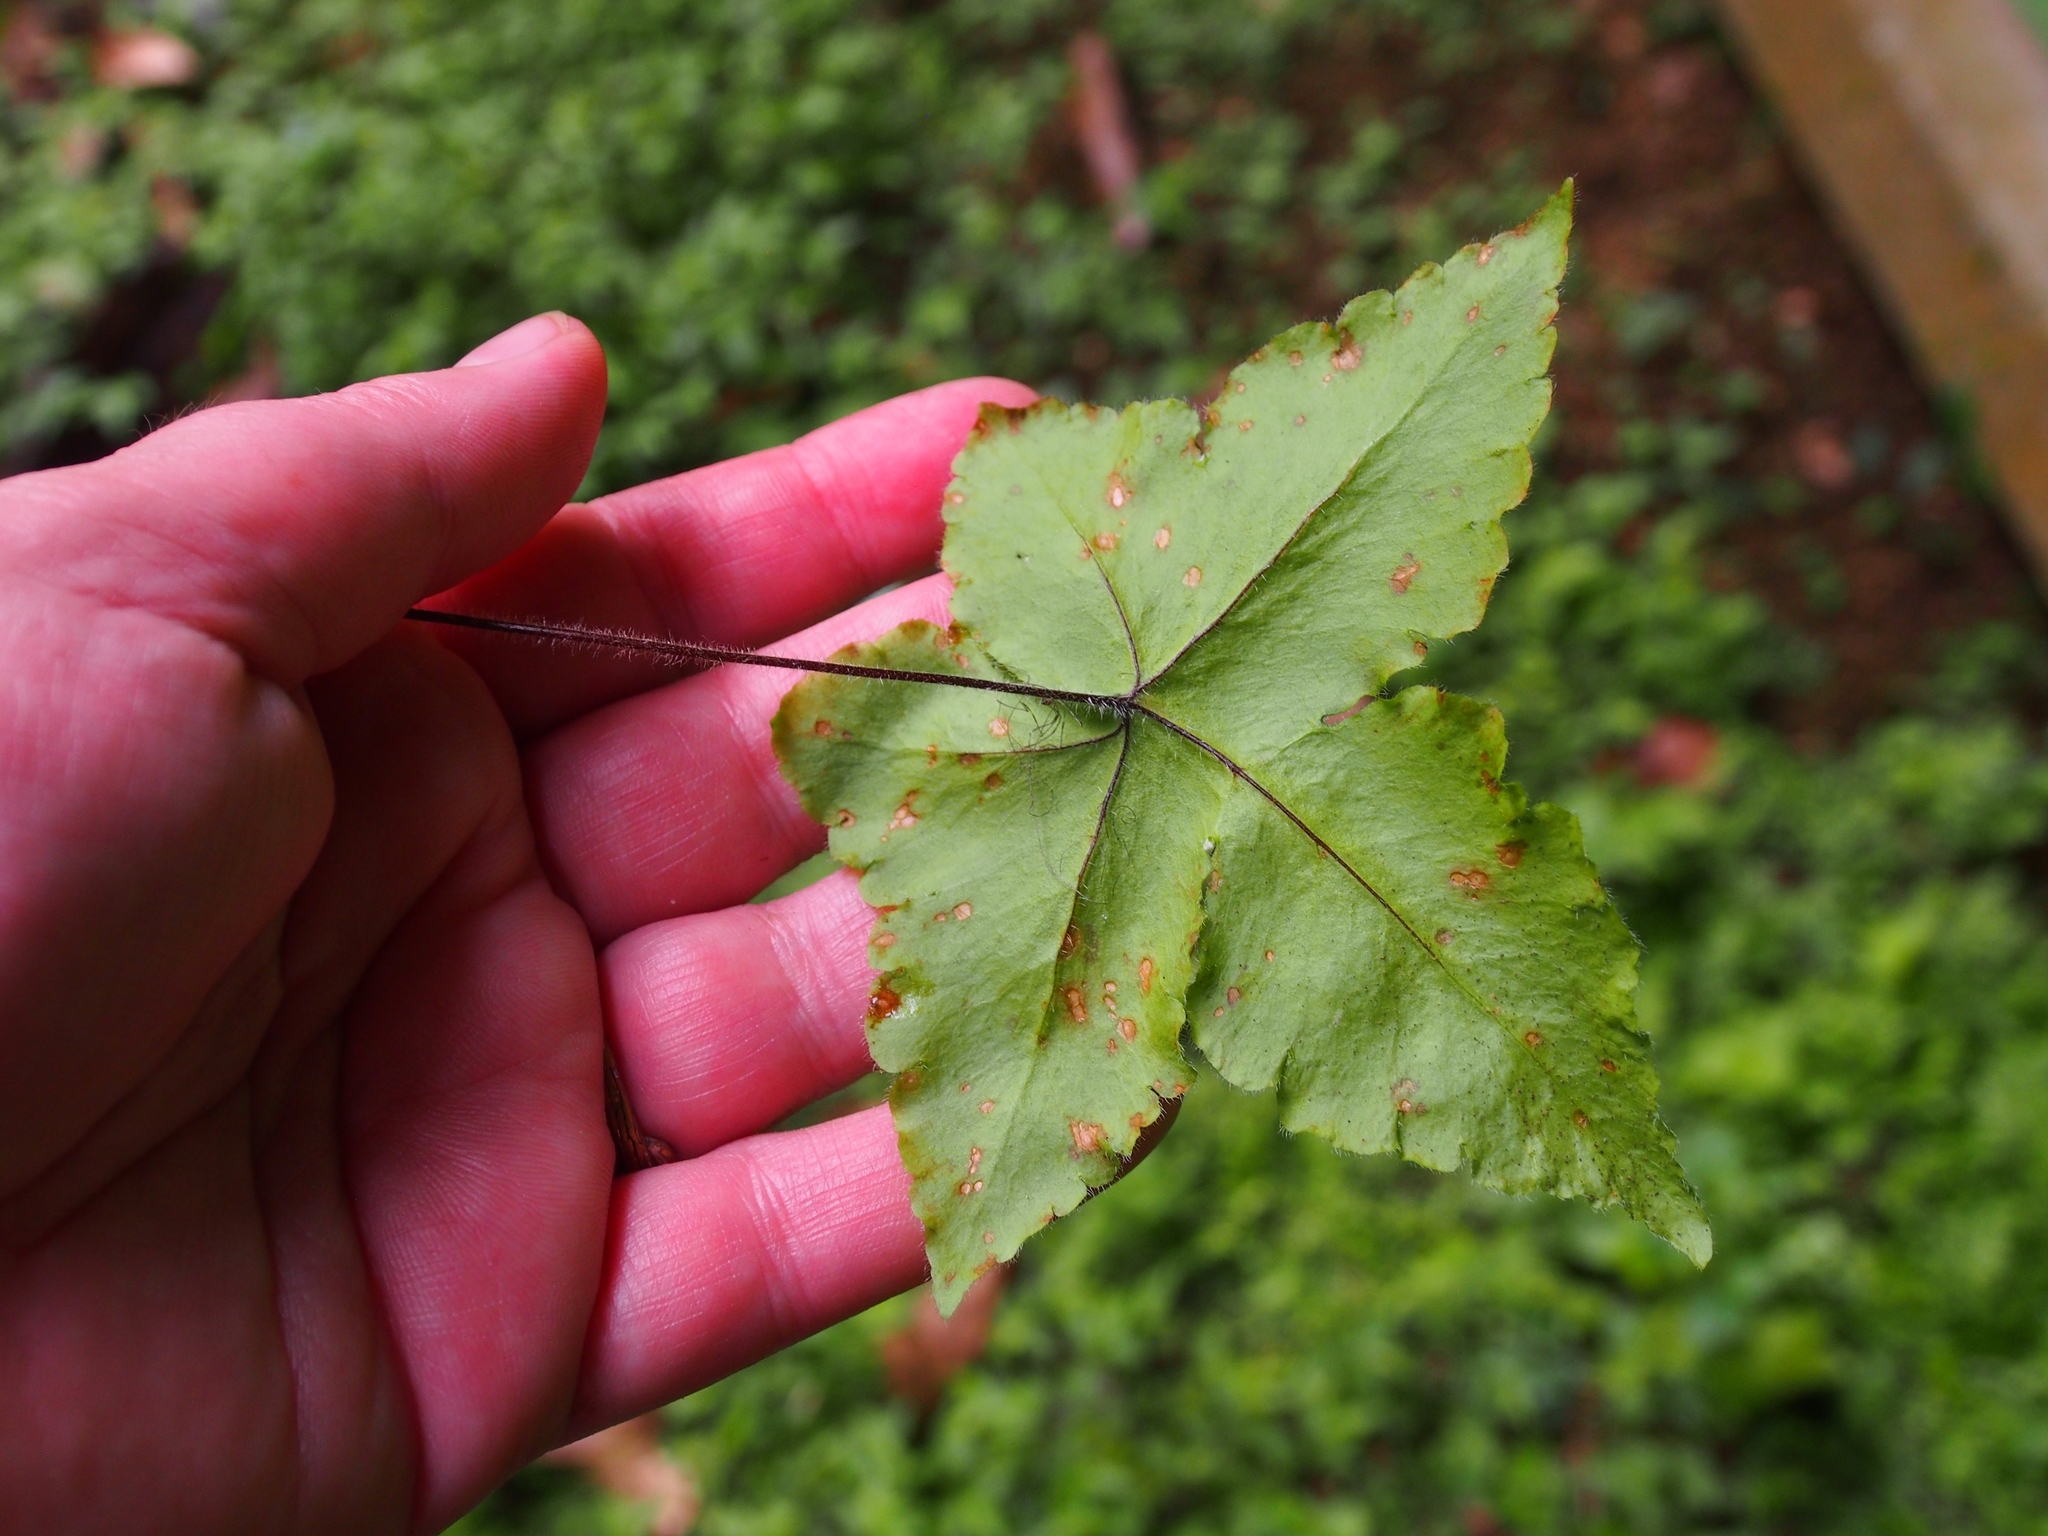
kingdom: Plantae
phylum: Tracheophyta
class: Polypodiopsida
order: Polypodiales
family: Pteridaceae
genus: Hemionitis
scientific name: Hemionitis palmata
